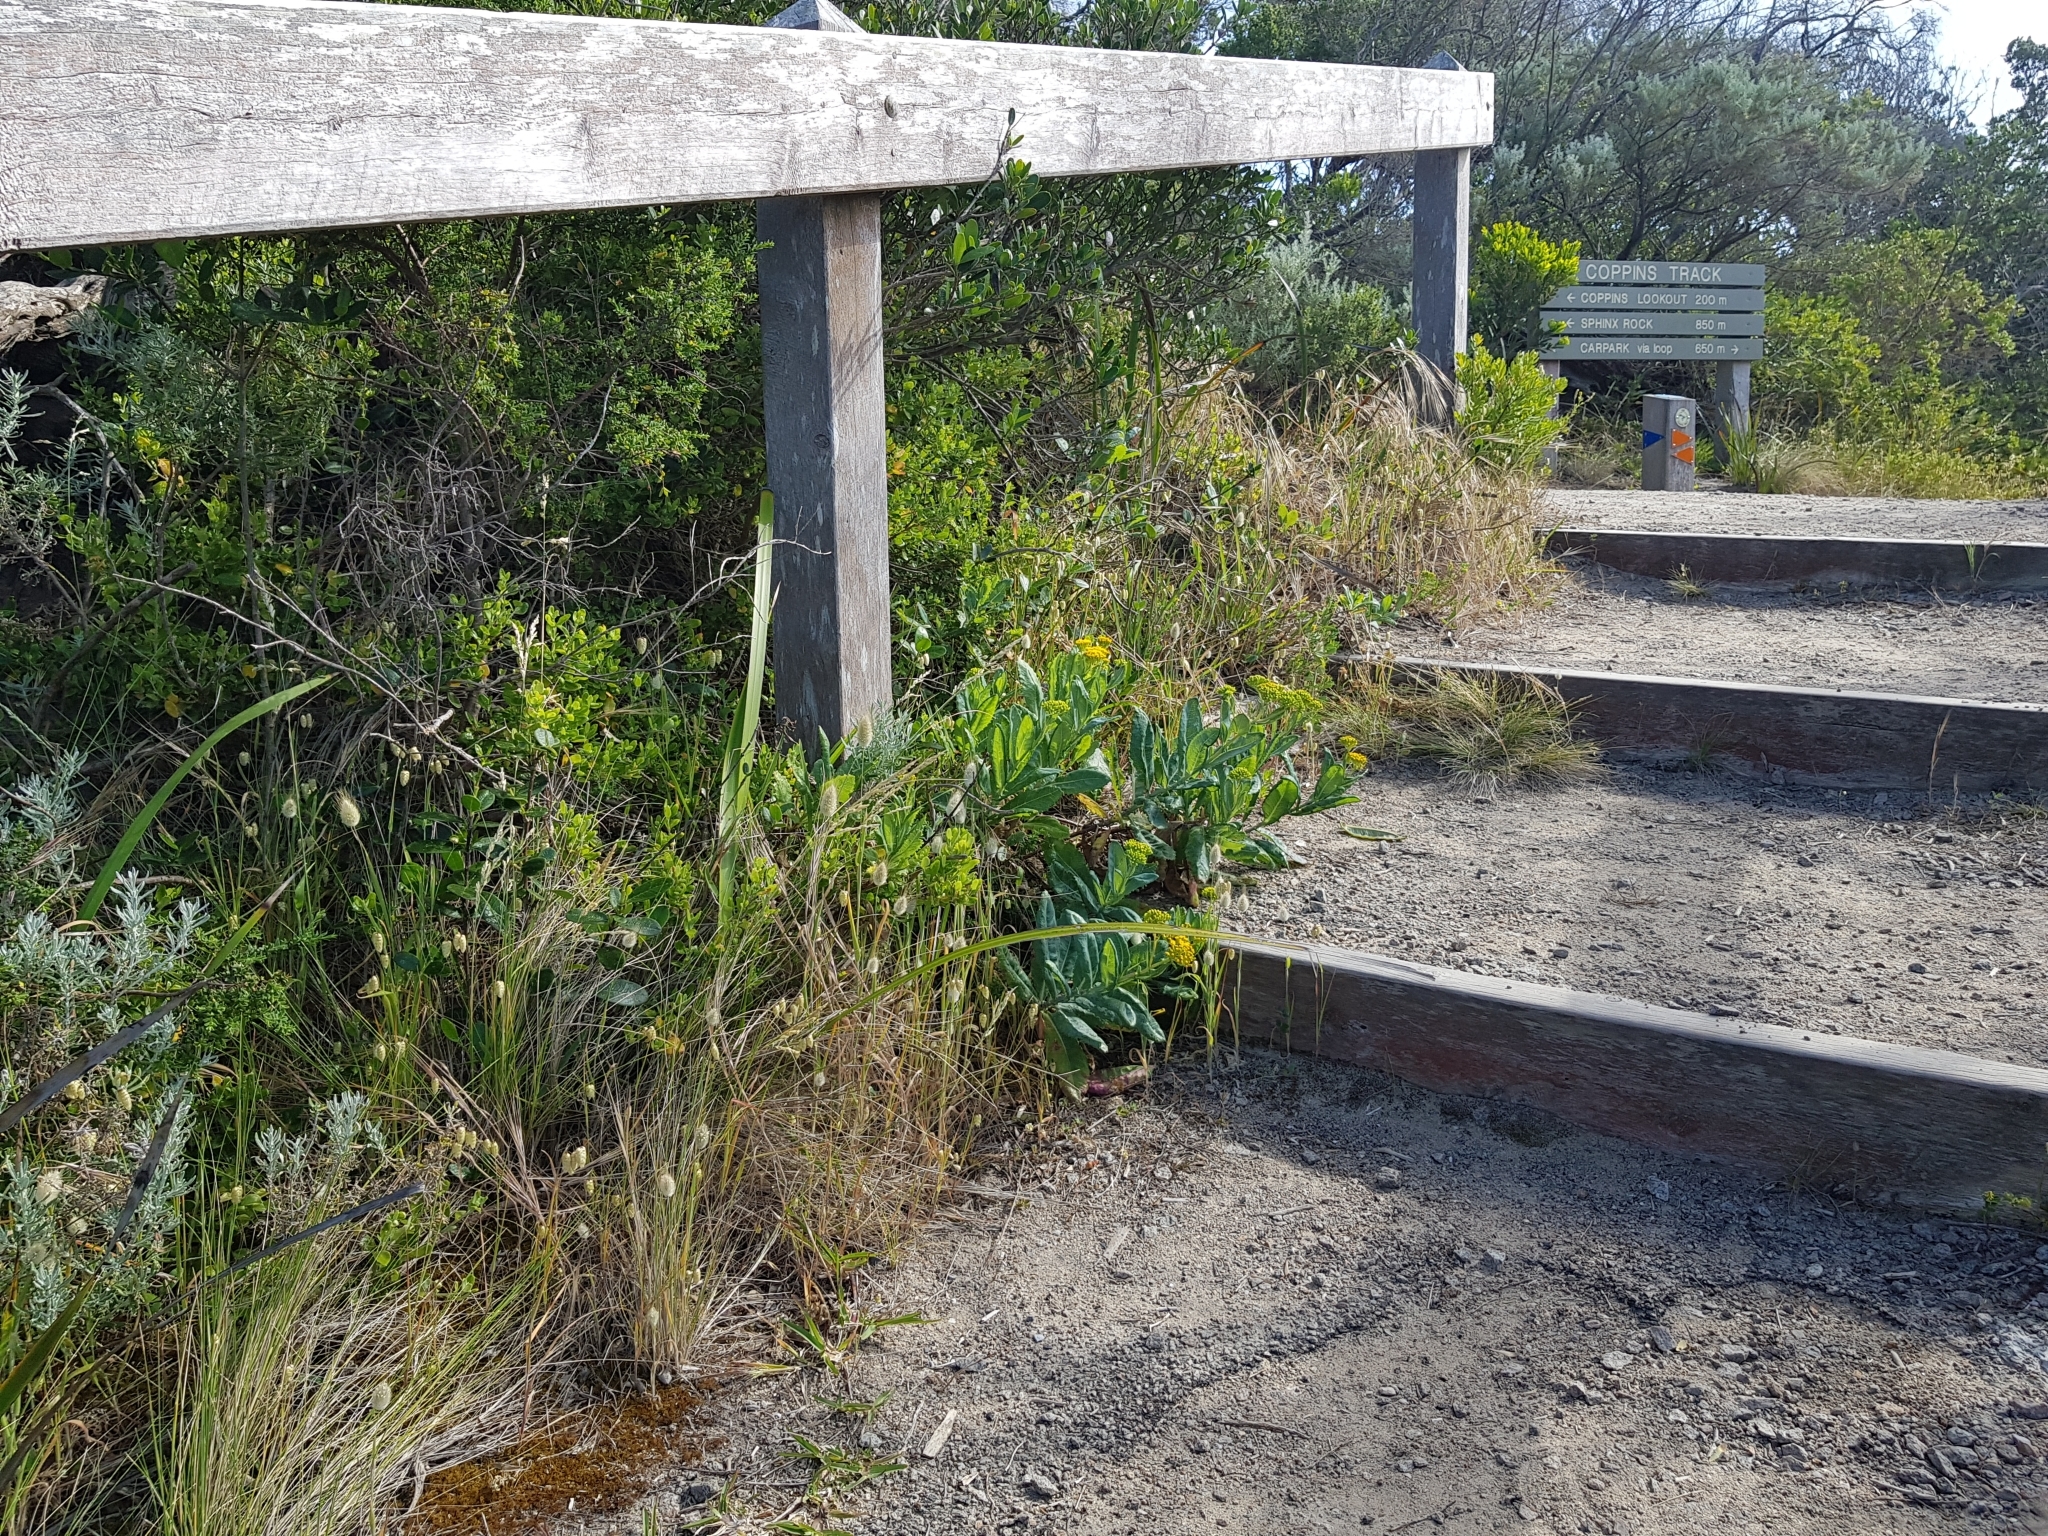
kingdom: Plantae
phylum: Tracheophyta
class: Magnoliopsida
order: Asterales
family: Asteraceae
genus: Senecio
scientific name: Senecio odoratus
